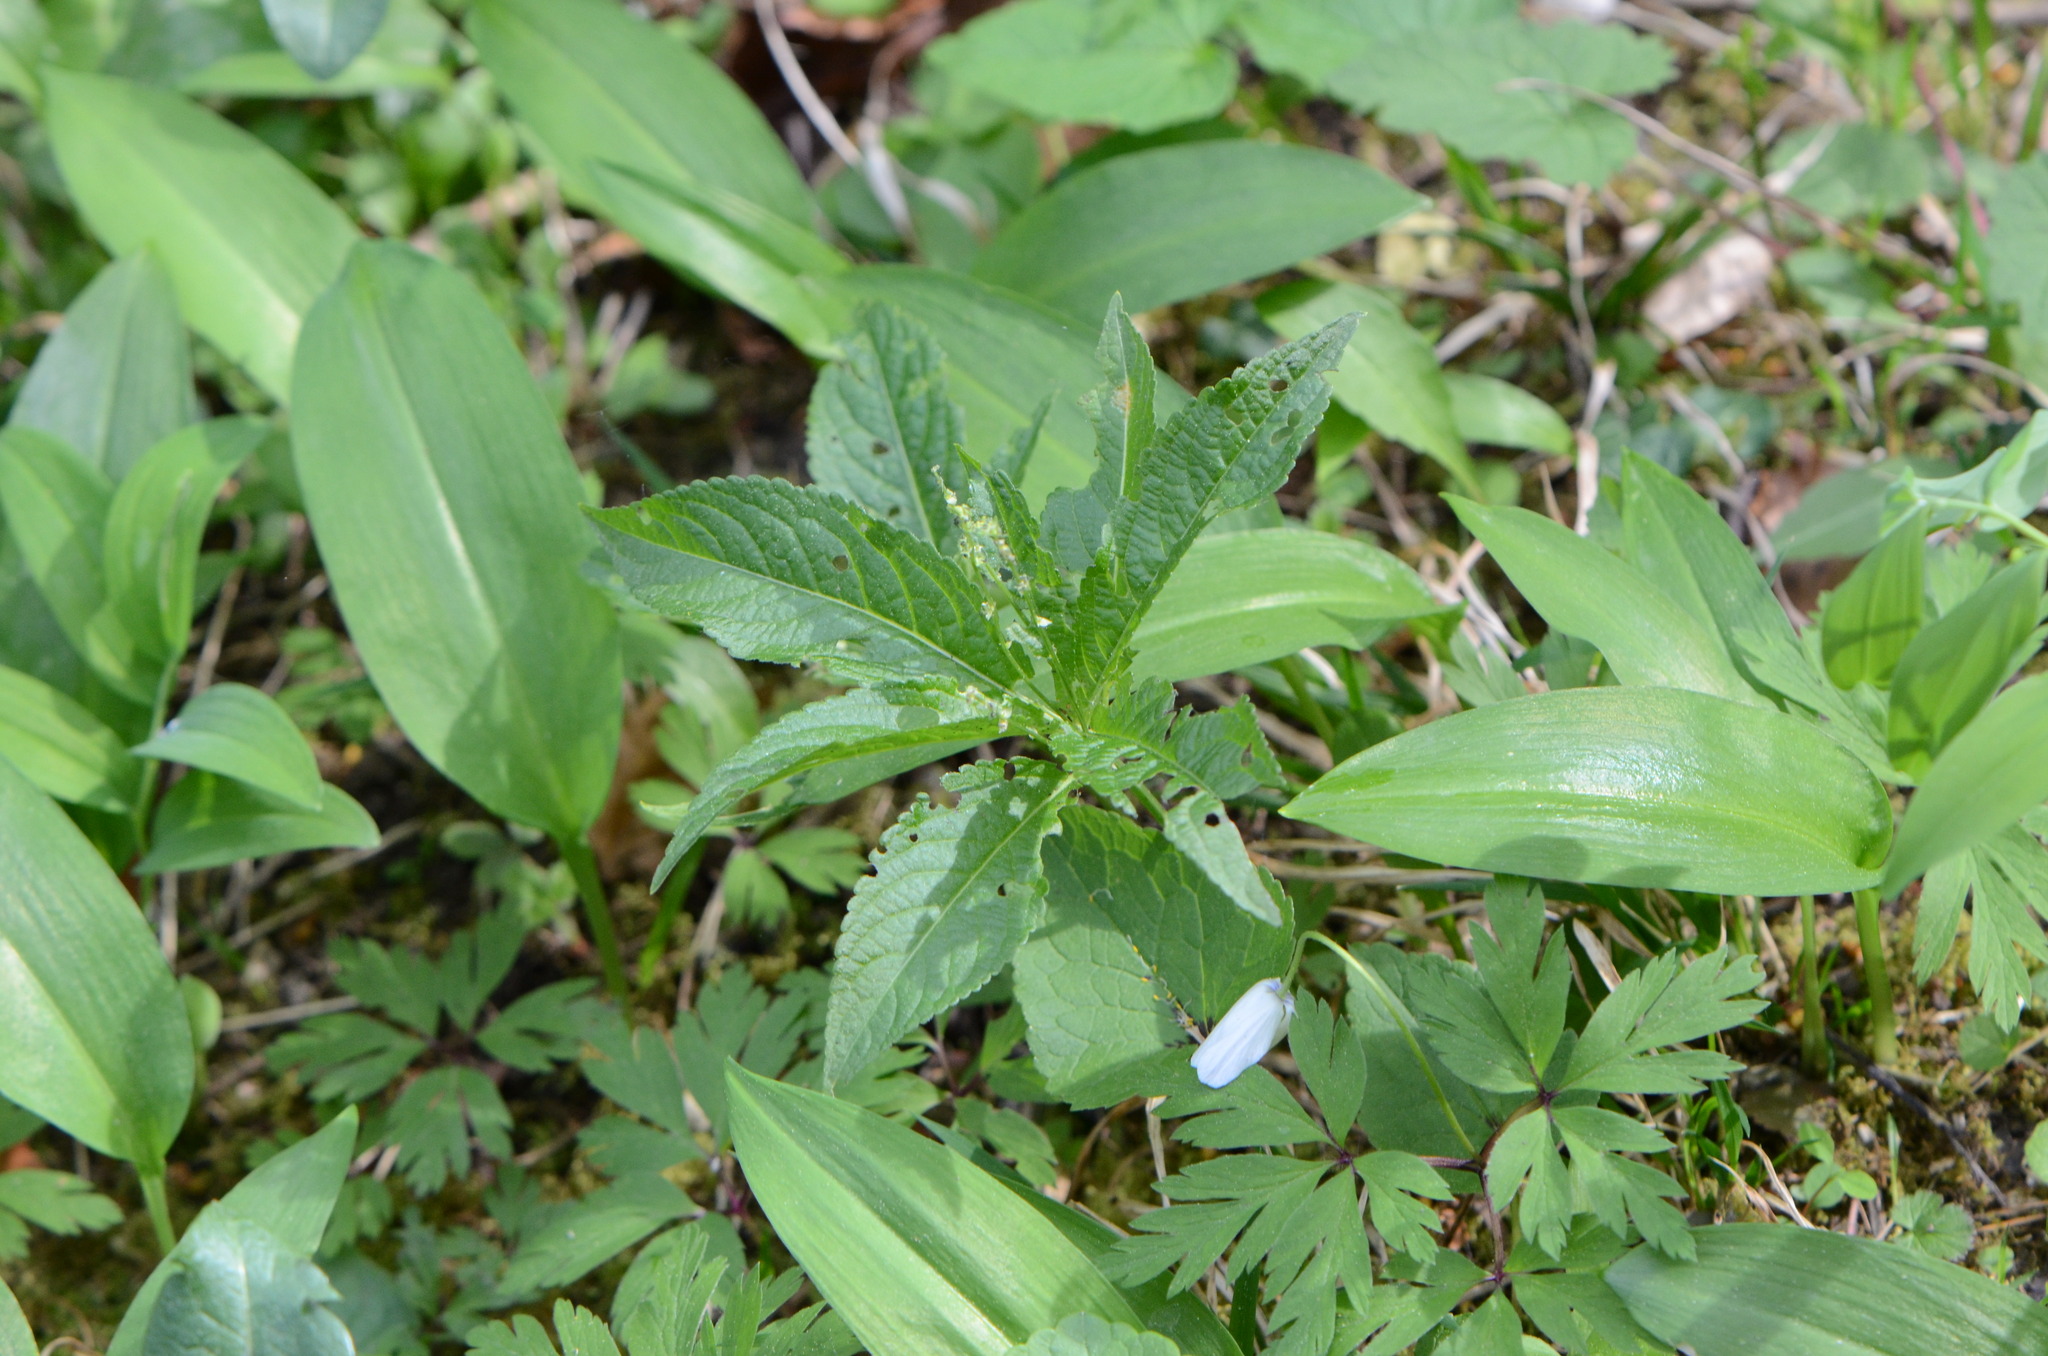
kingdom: Plantae
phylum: Tracheophyta
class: Magnoliopsida
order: Malpighiales
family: Euphorbiaceae
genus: Mercurialis
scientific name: Mercurialis perennis
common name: Dog mercury
